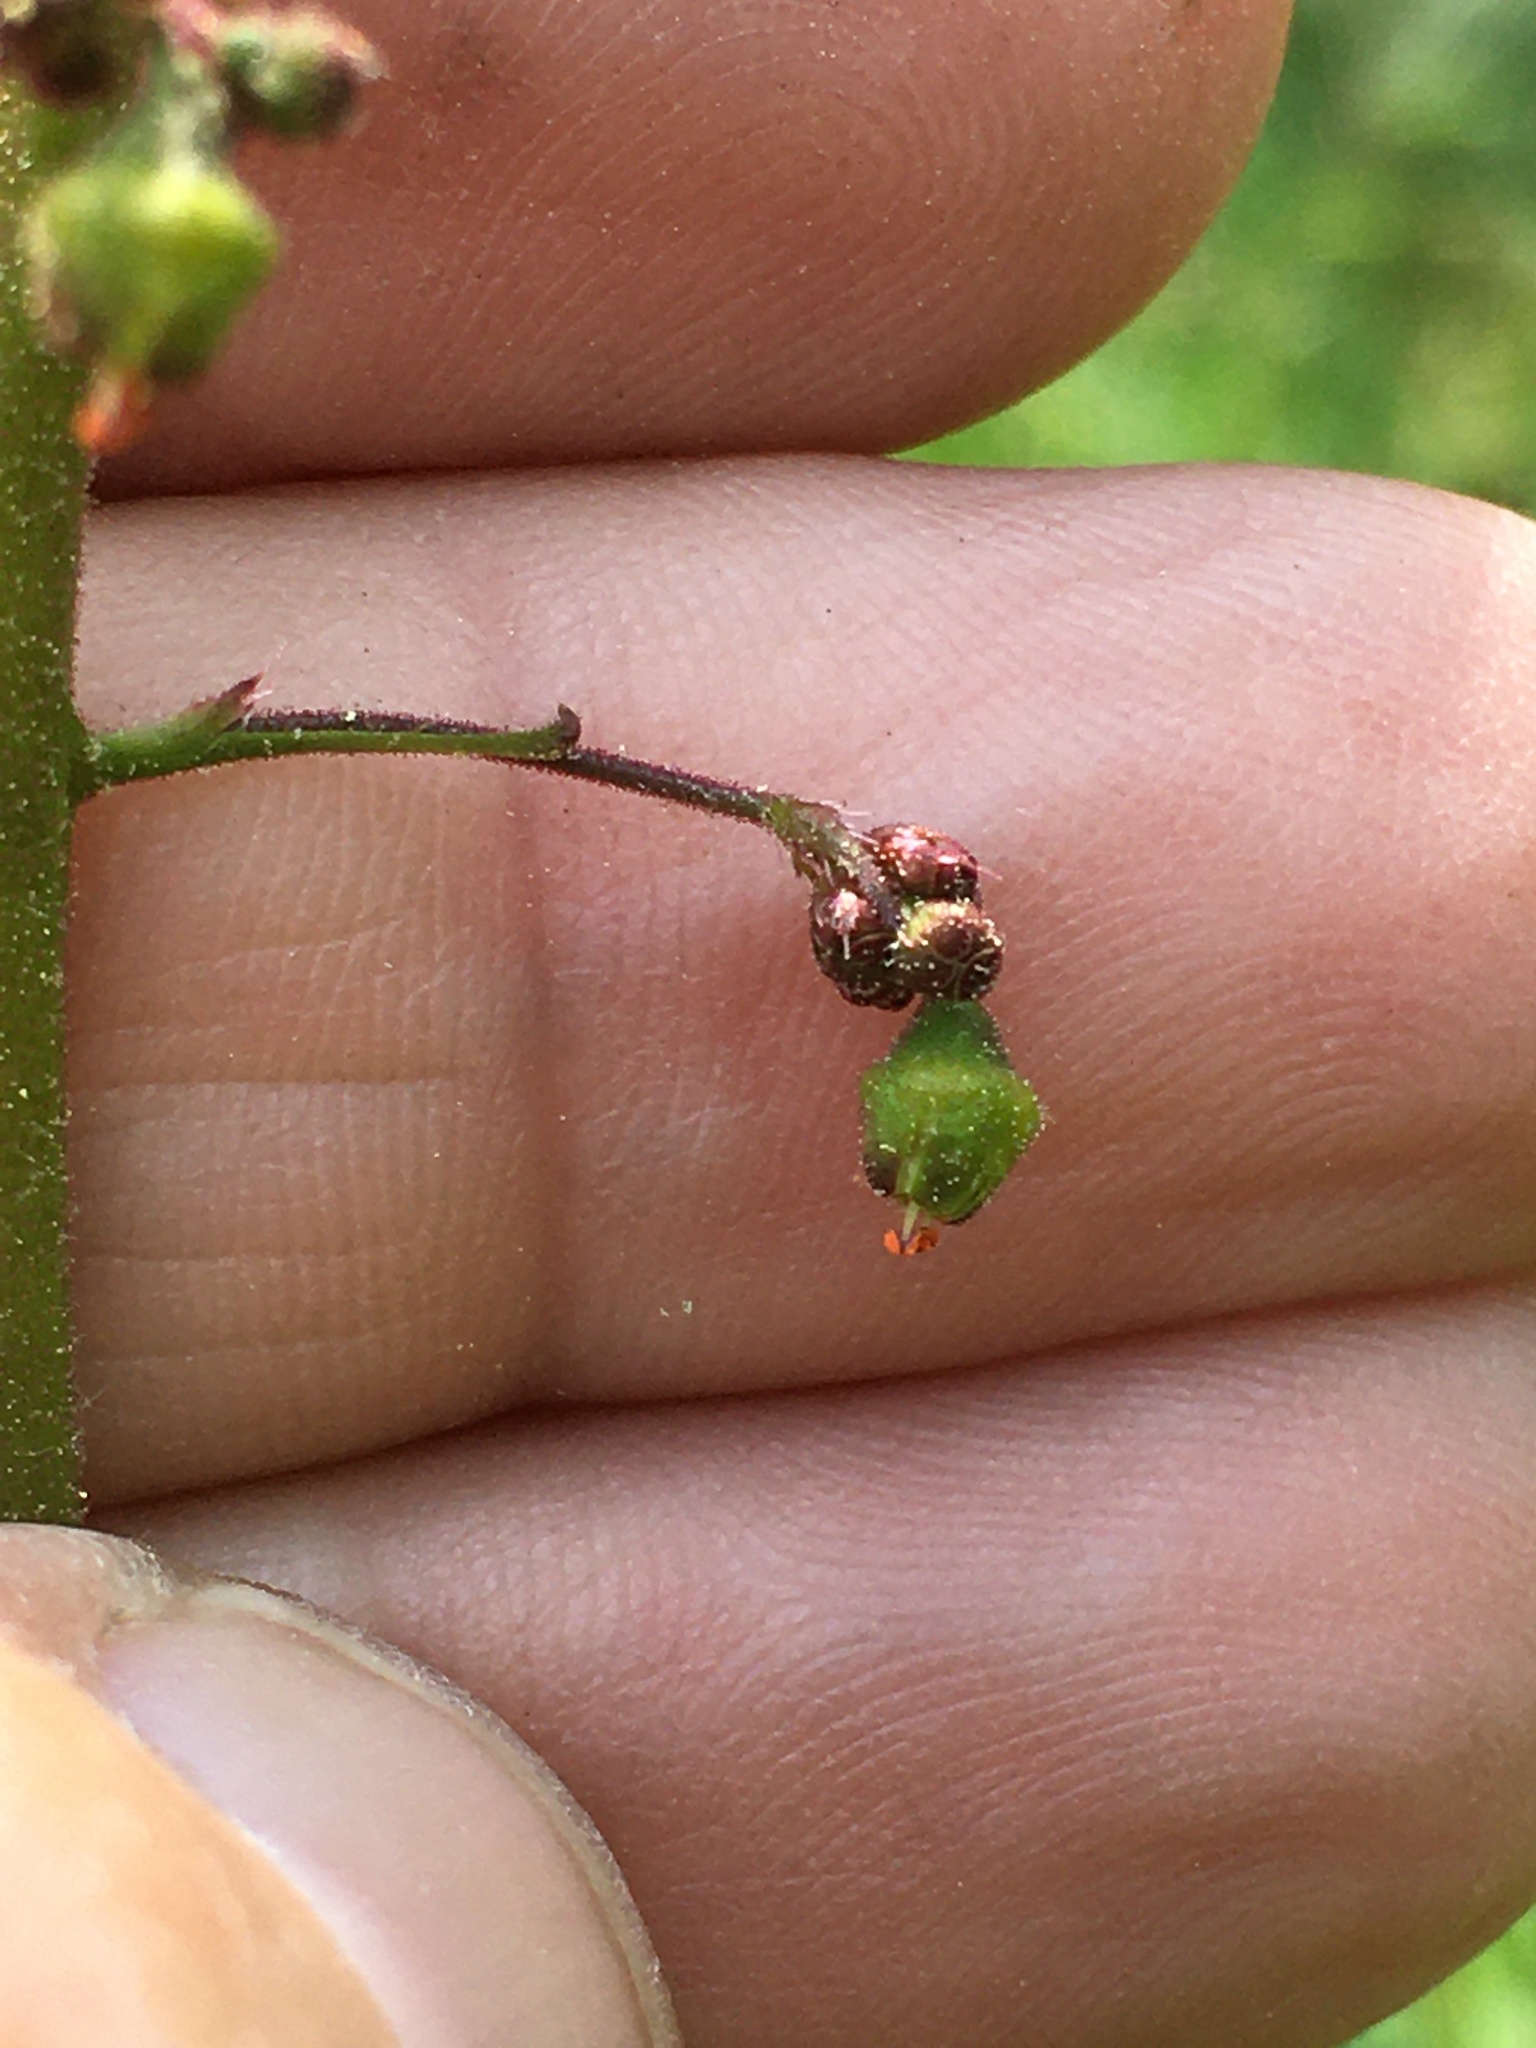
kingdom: Plantae
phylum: Tracheophyta
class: Magnoliopsida
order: Saxifragales
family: Saxifragaceae
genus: Heuchera
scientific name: Heuchera caroliniana
